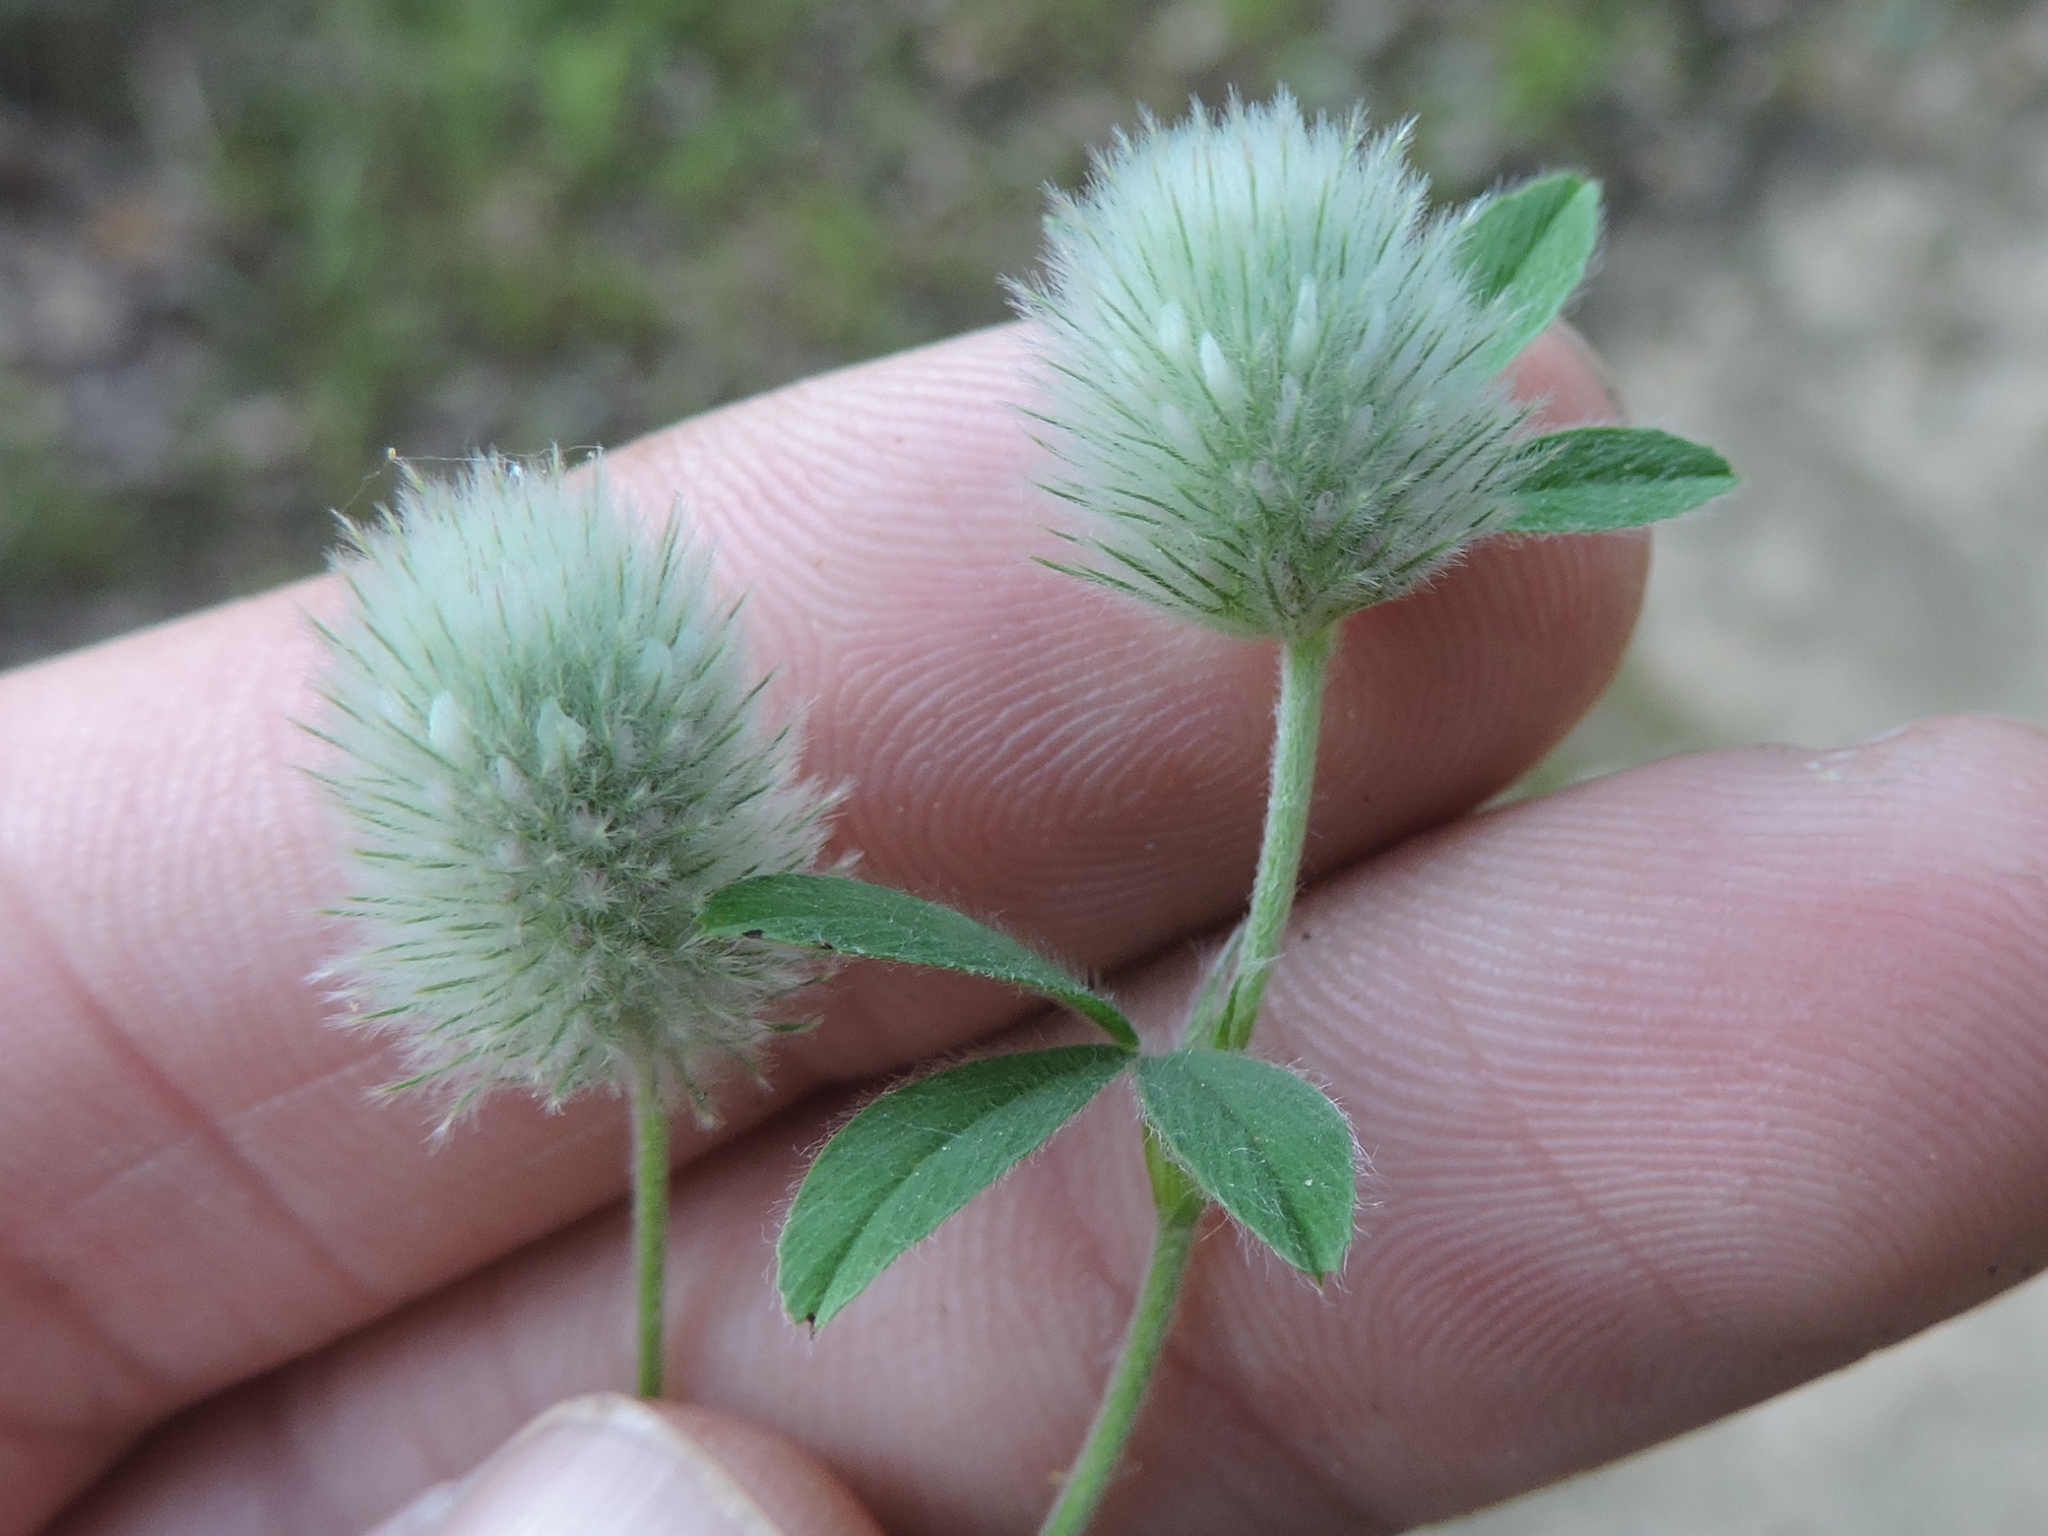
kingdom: Plantae
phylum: Tracheophyta
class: Magnoliopsida
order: Fabales
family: Fabaceae
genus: Trifolium
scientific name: Trifolium arvense
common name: Hare's-foot clover
